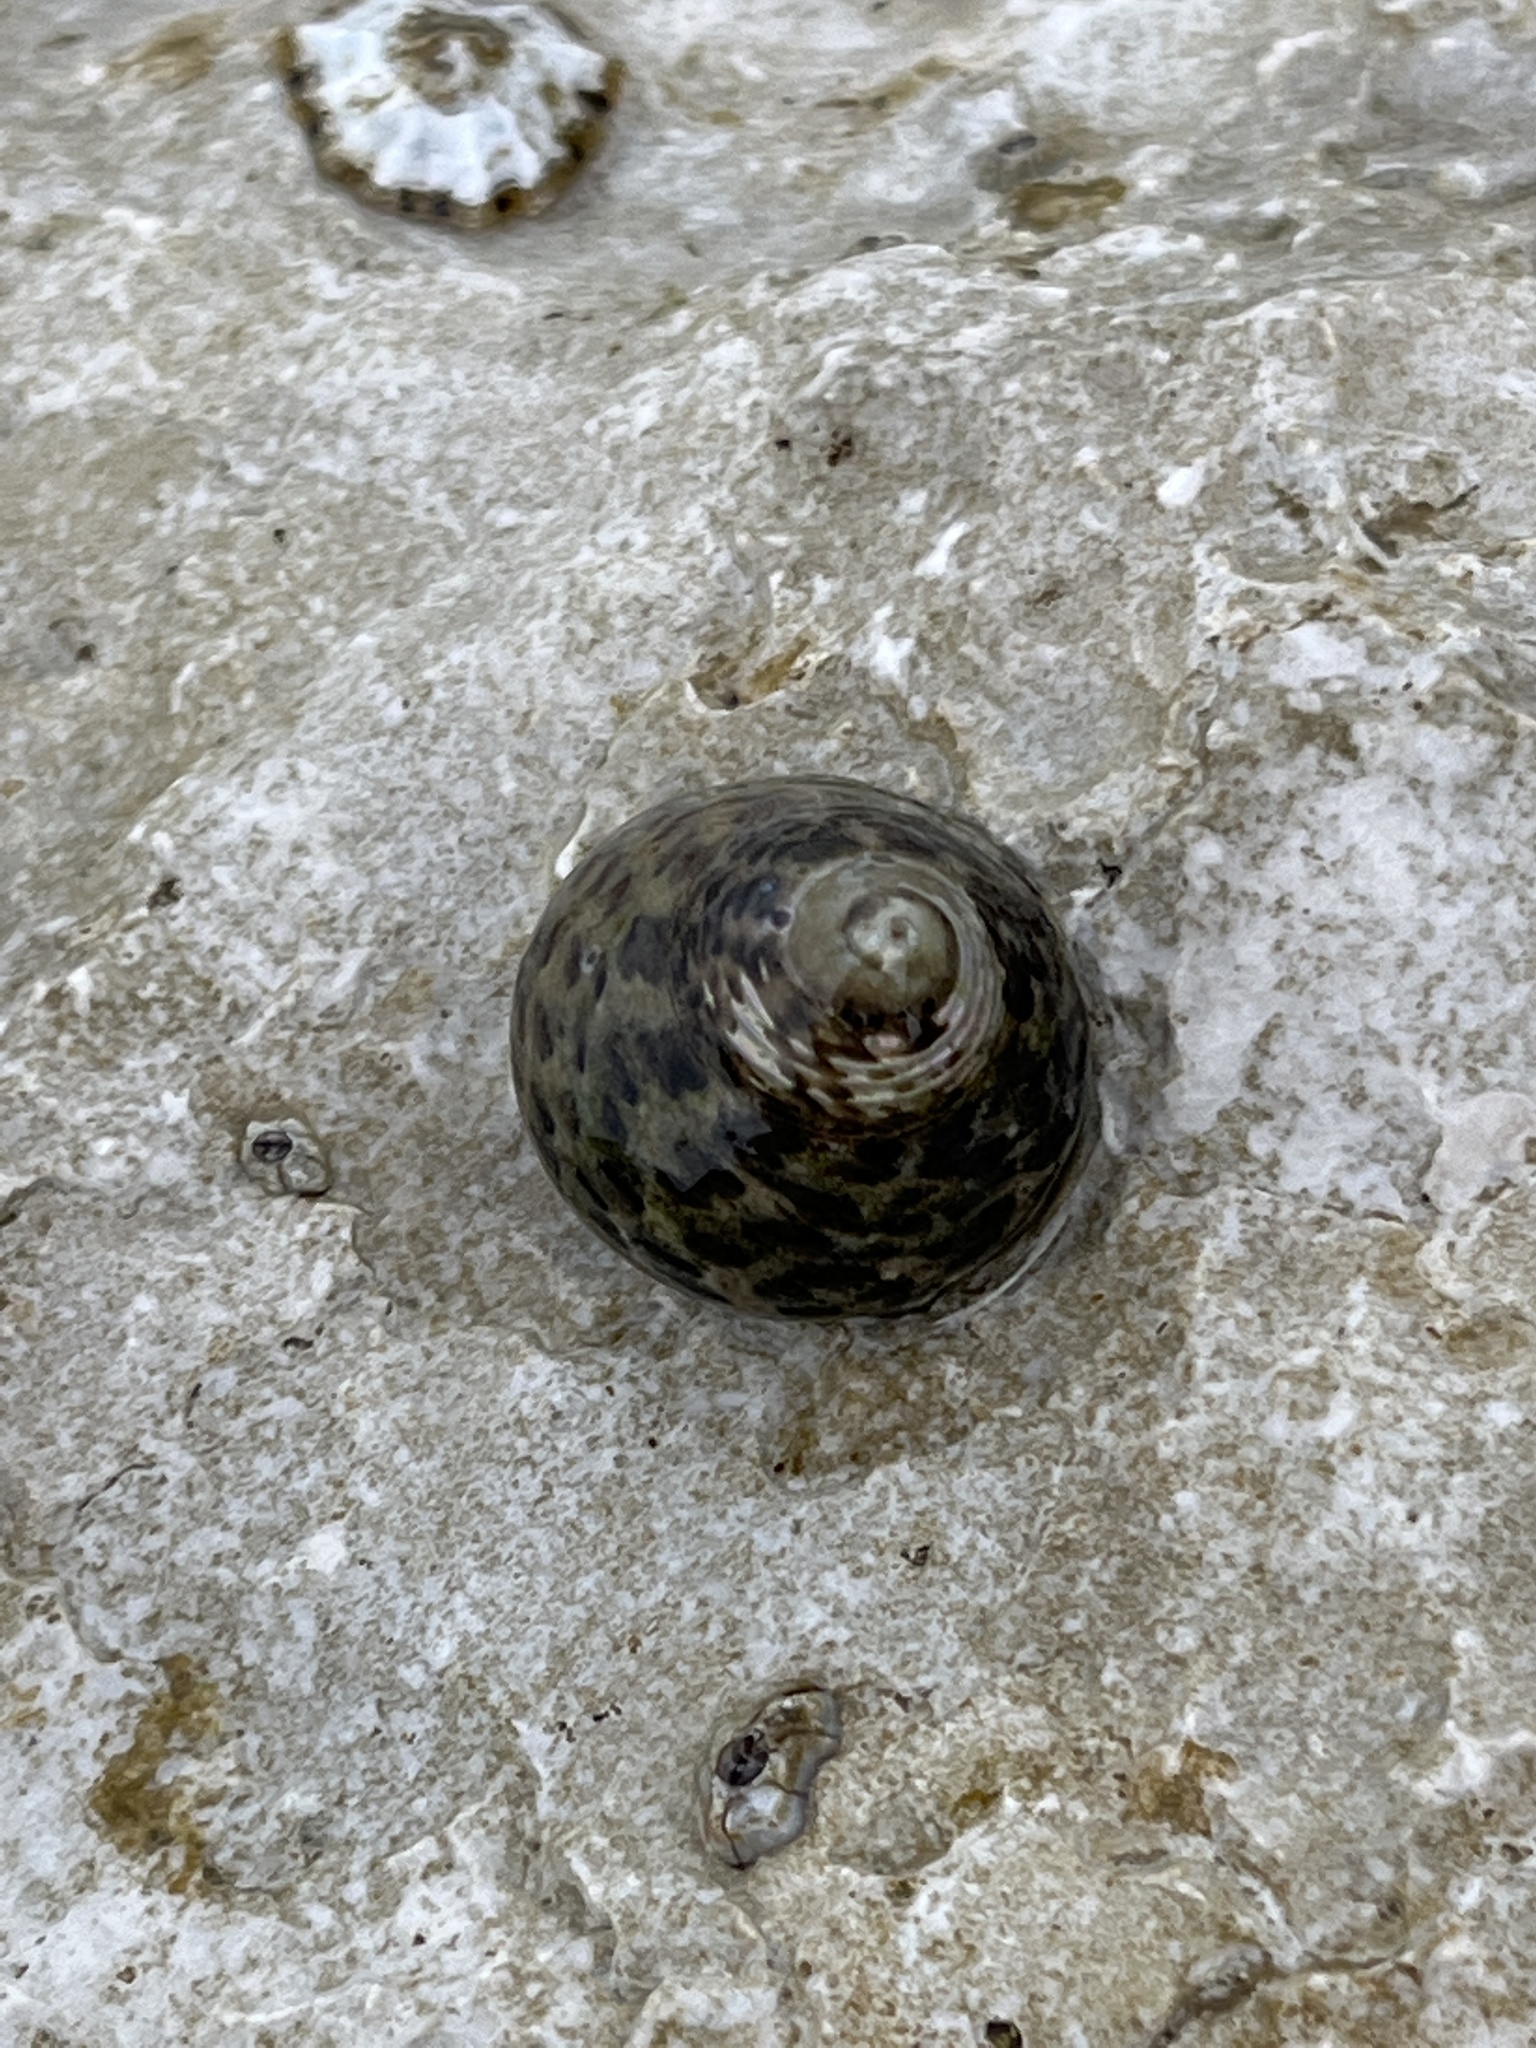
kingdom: Animalia
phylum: Mollusca
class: Gastropoda
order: Trochida
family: Trochidae
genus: Phorcus
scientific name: Phorcus turbinatus
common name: Turbinate monodont
